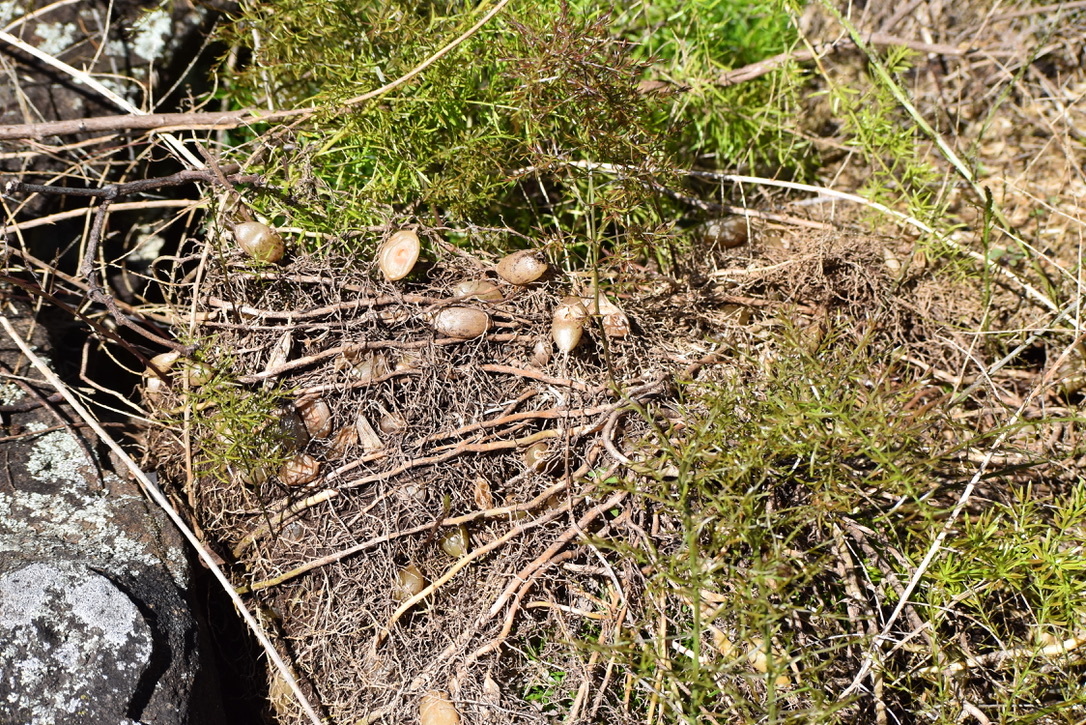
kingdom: Plantae
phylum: Tracheophyta
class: Liliopsida
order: Asparagales
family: Asparagaceae
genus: Asparagus
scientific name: Asparagus aethiopicus
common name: Sprenger's asparagus fern
